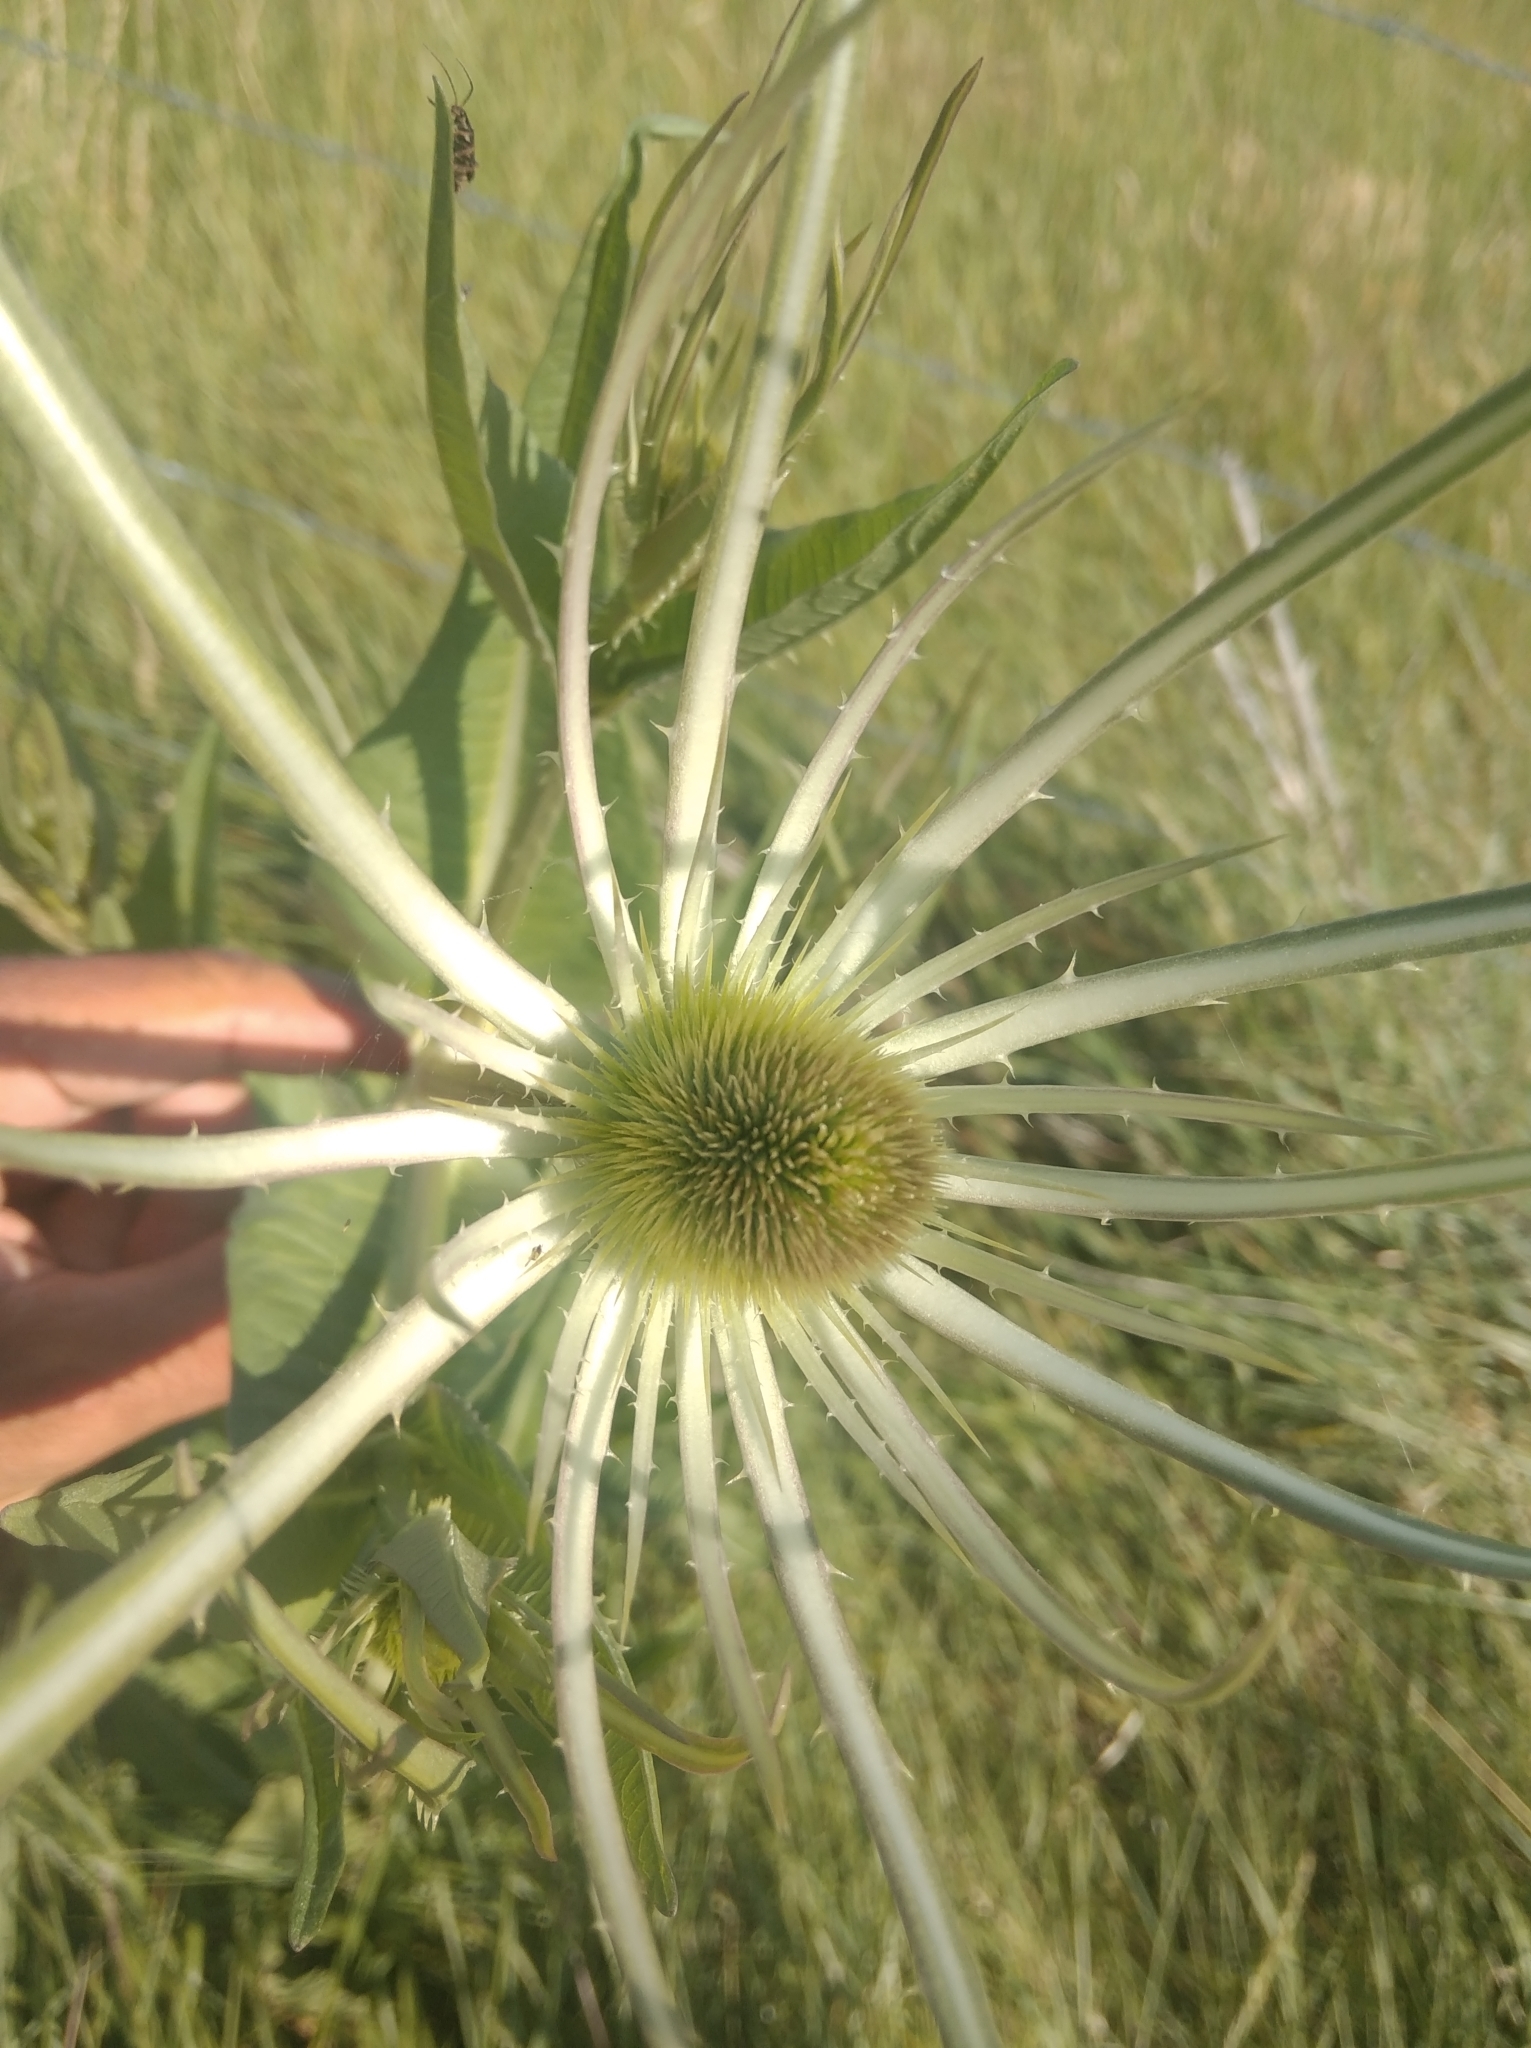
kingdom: Plantae
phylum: Tracheophyta
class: Magnoliopsida
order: Dipsacales
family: Caprifoliaceae
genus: Dipsacus
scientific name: Dipsacus fullonum
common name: Teasel
